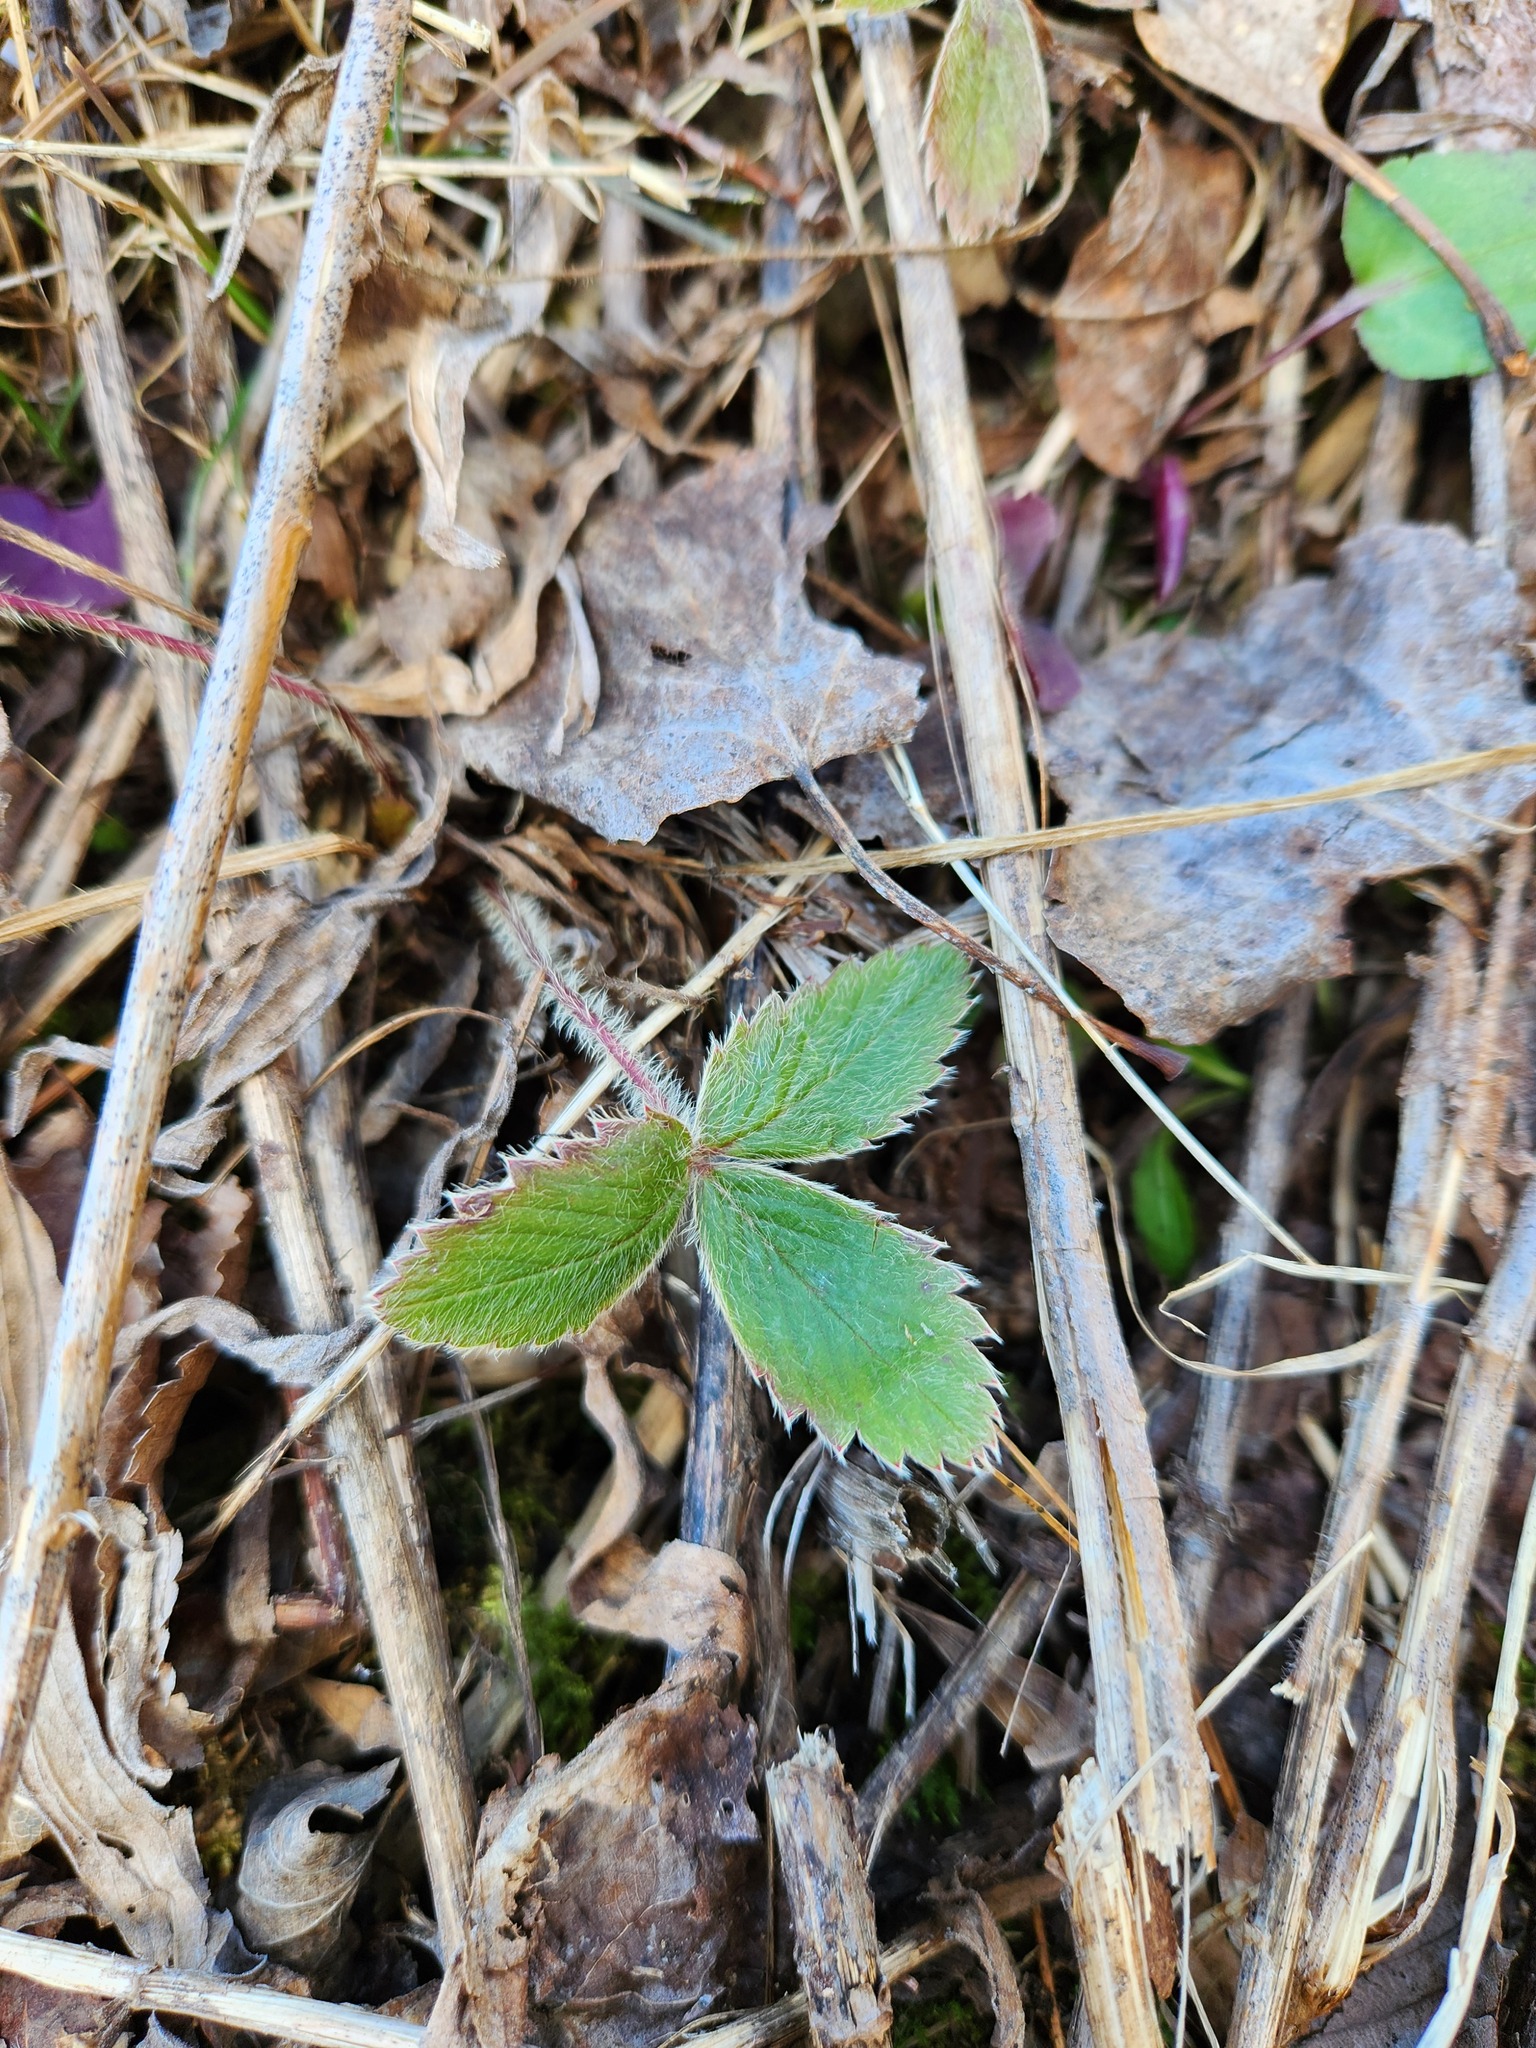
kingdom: Plantae
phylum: Tracheophyta
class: Magnoliopsida
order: Rosales
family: Rosaceae
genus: Fragaria
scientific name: Fragaria virginiana
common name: Thickleaved wild strawberry
